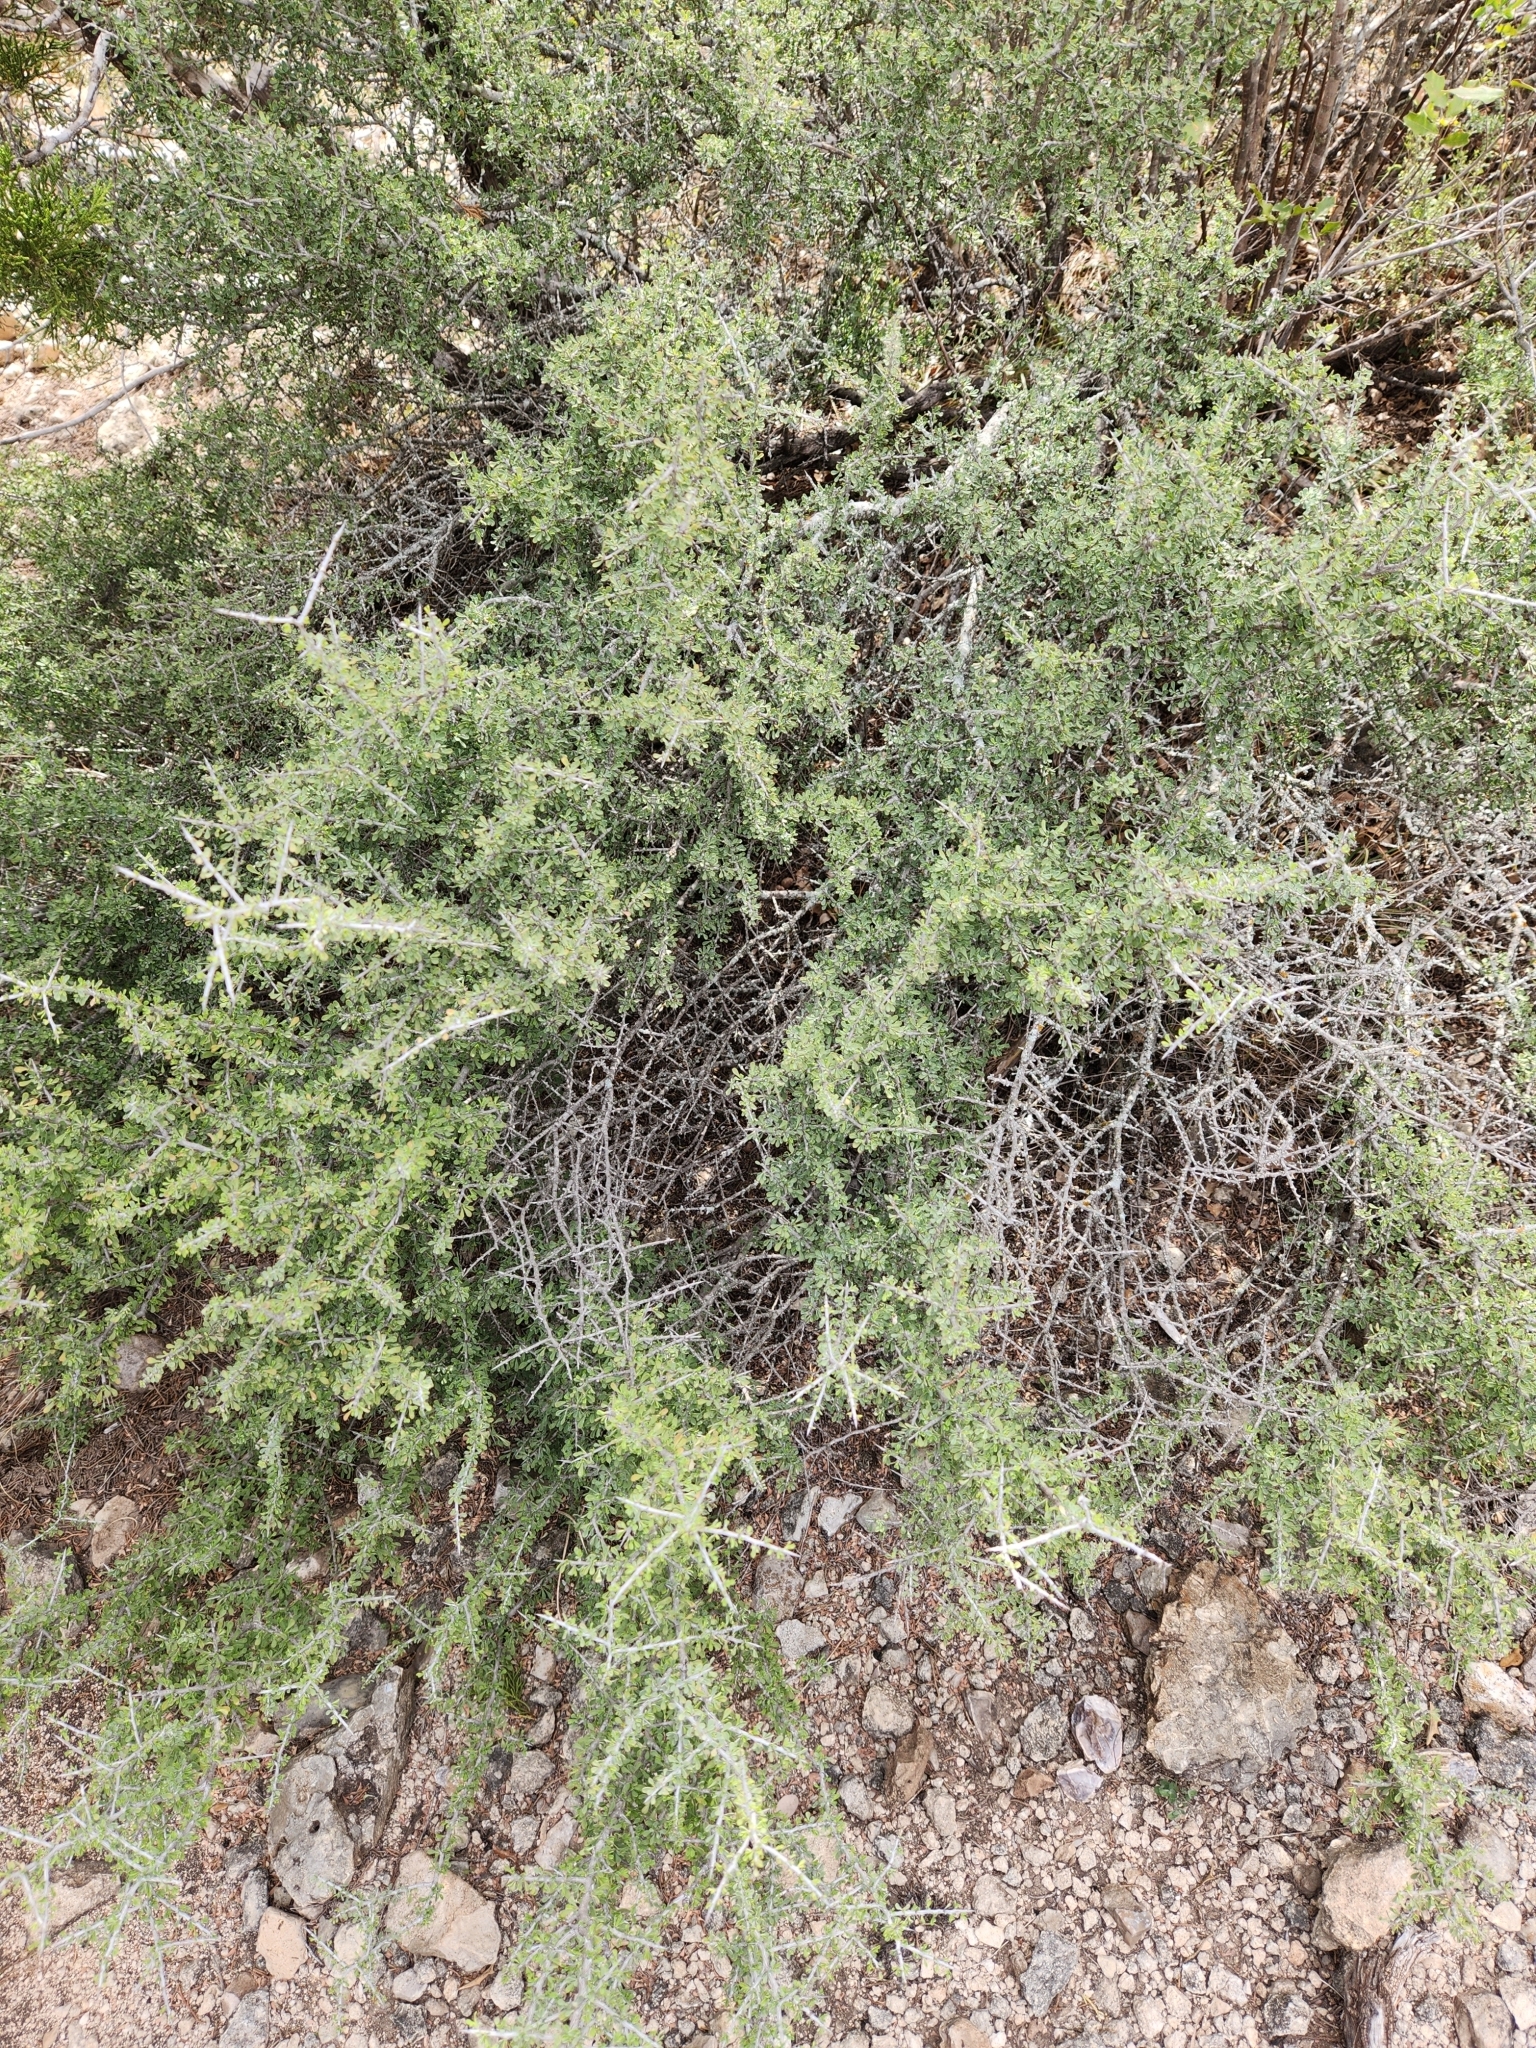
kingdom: Plantae
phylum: Tracheophyta
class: Magnoliopsida
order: Rosales
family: Rhamnaceae
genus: Condalia
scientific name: Condalia spathulata
